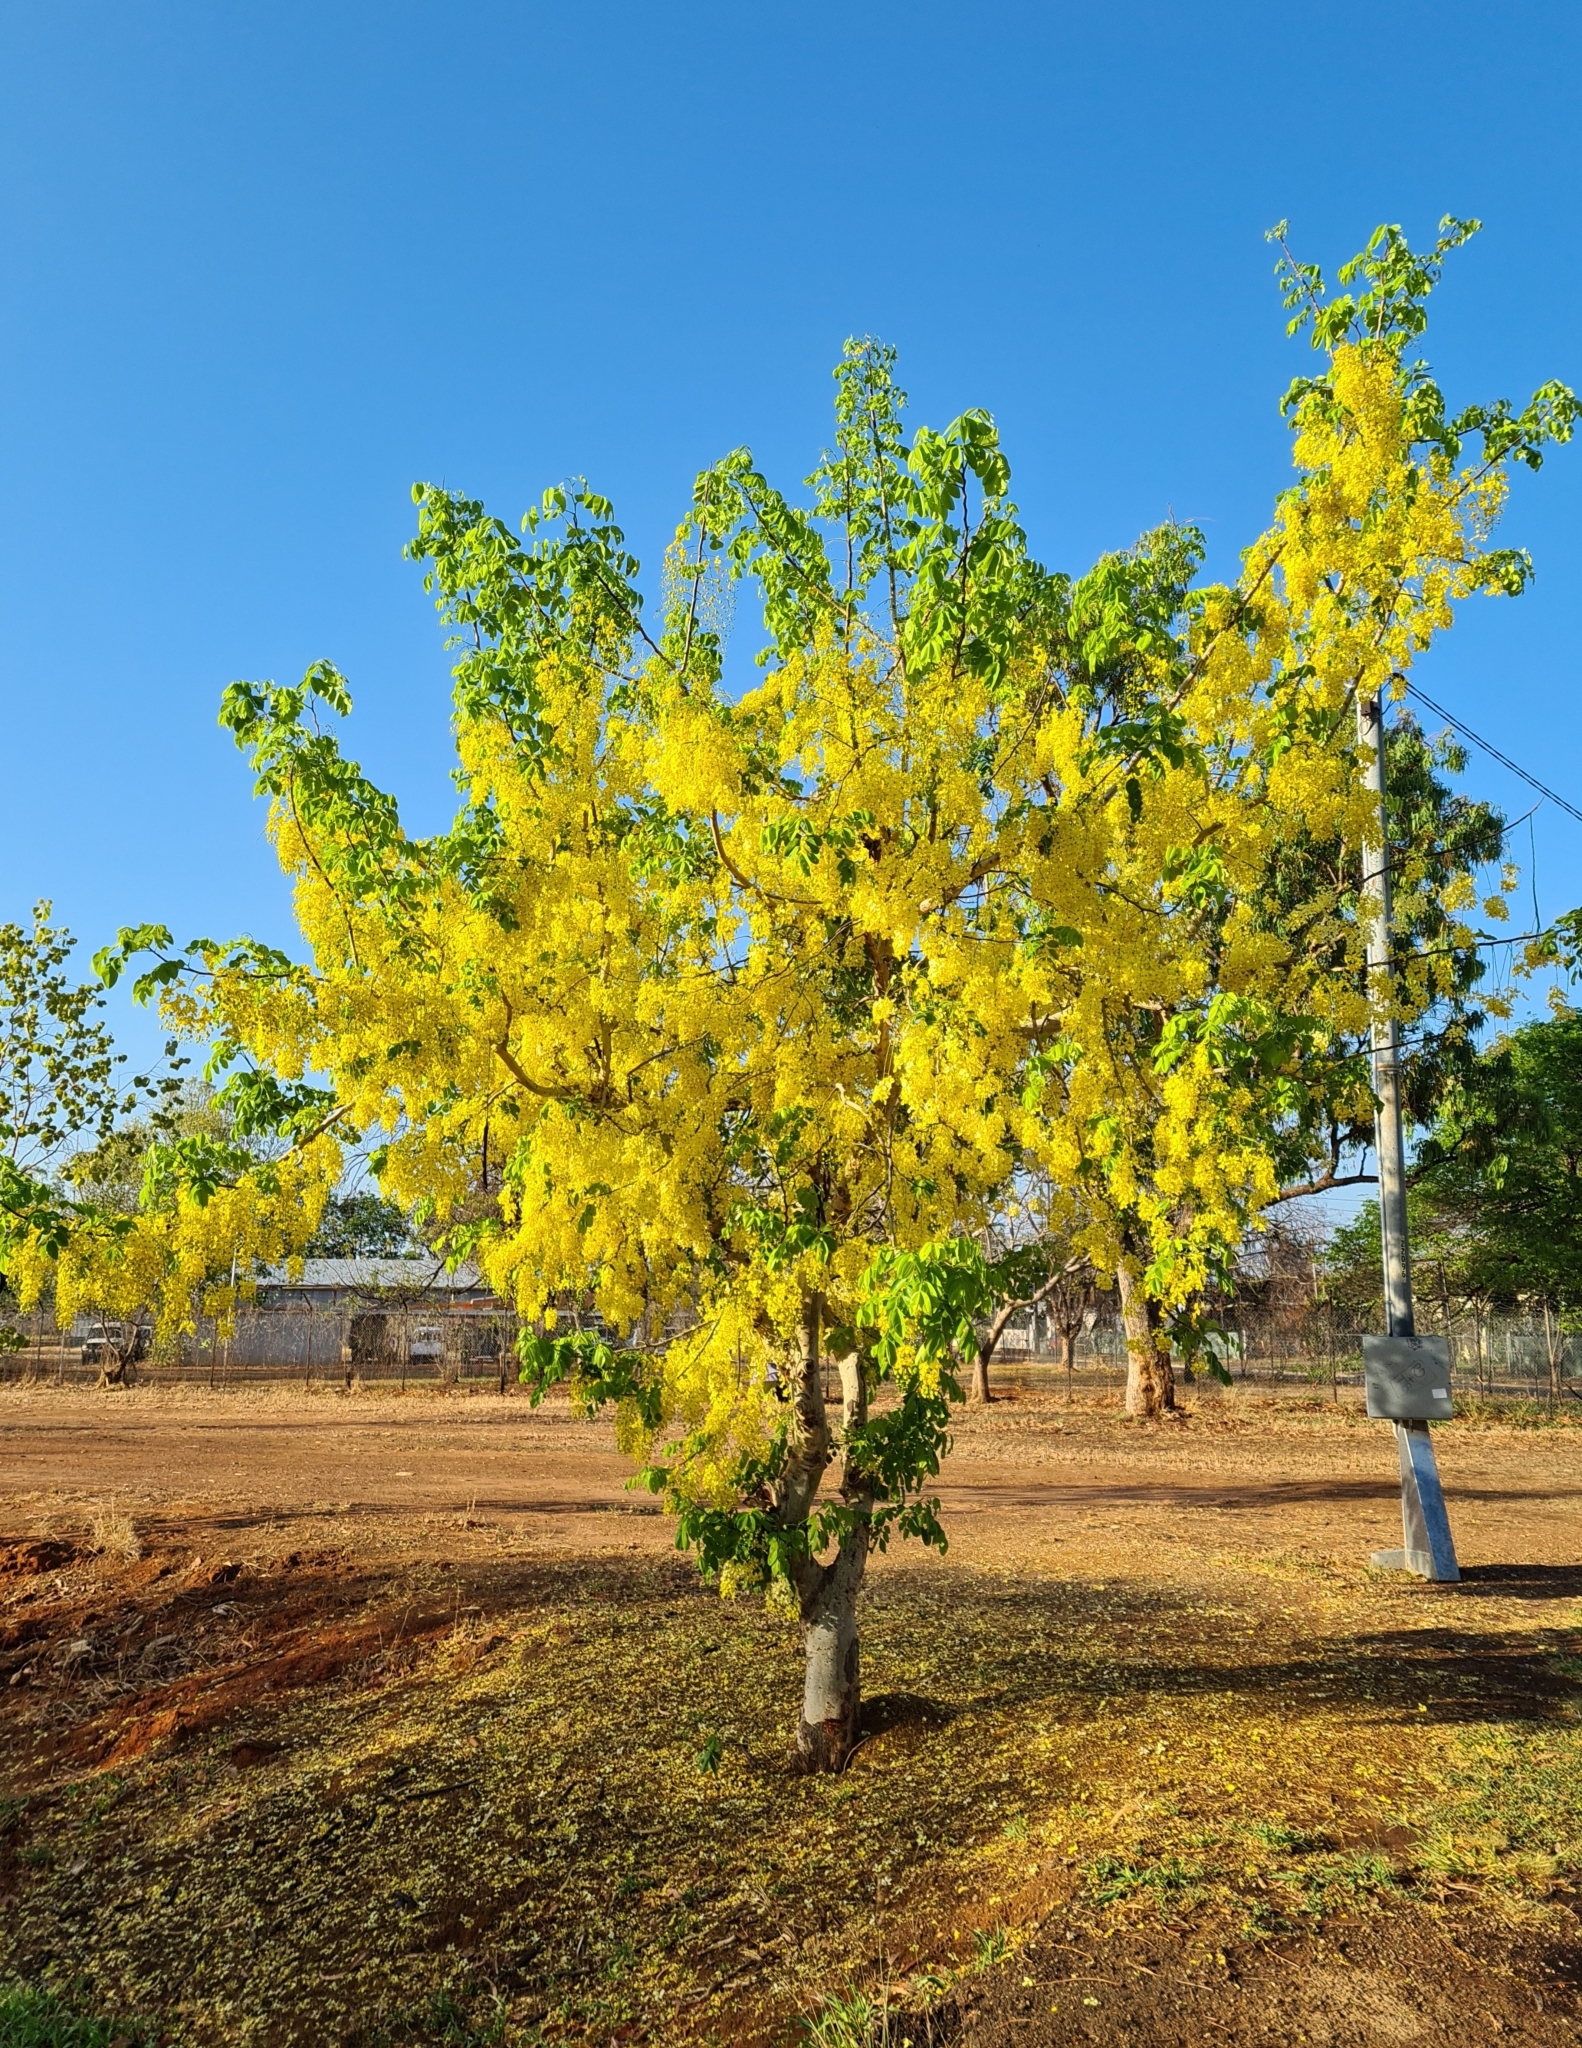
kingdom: Plantae
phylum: Tracheophyta
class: Magnoliopsida
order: Fabales
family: Fabaceae
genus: Cassia
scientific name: Cassia fistula
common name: Golden shower
